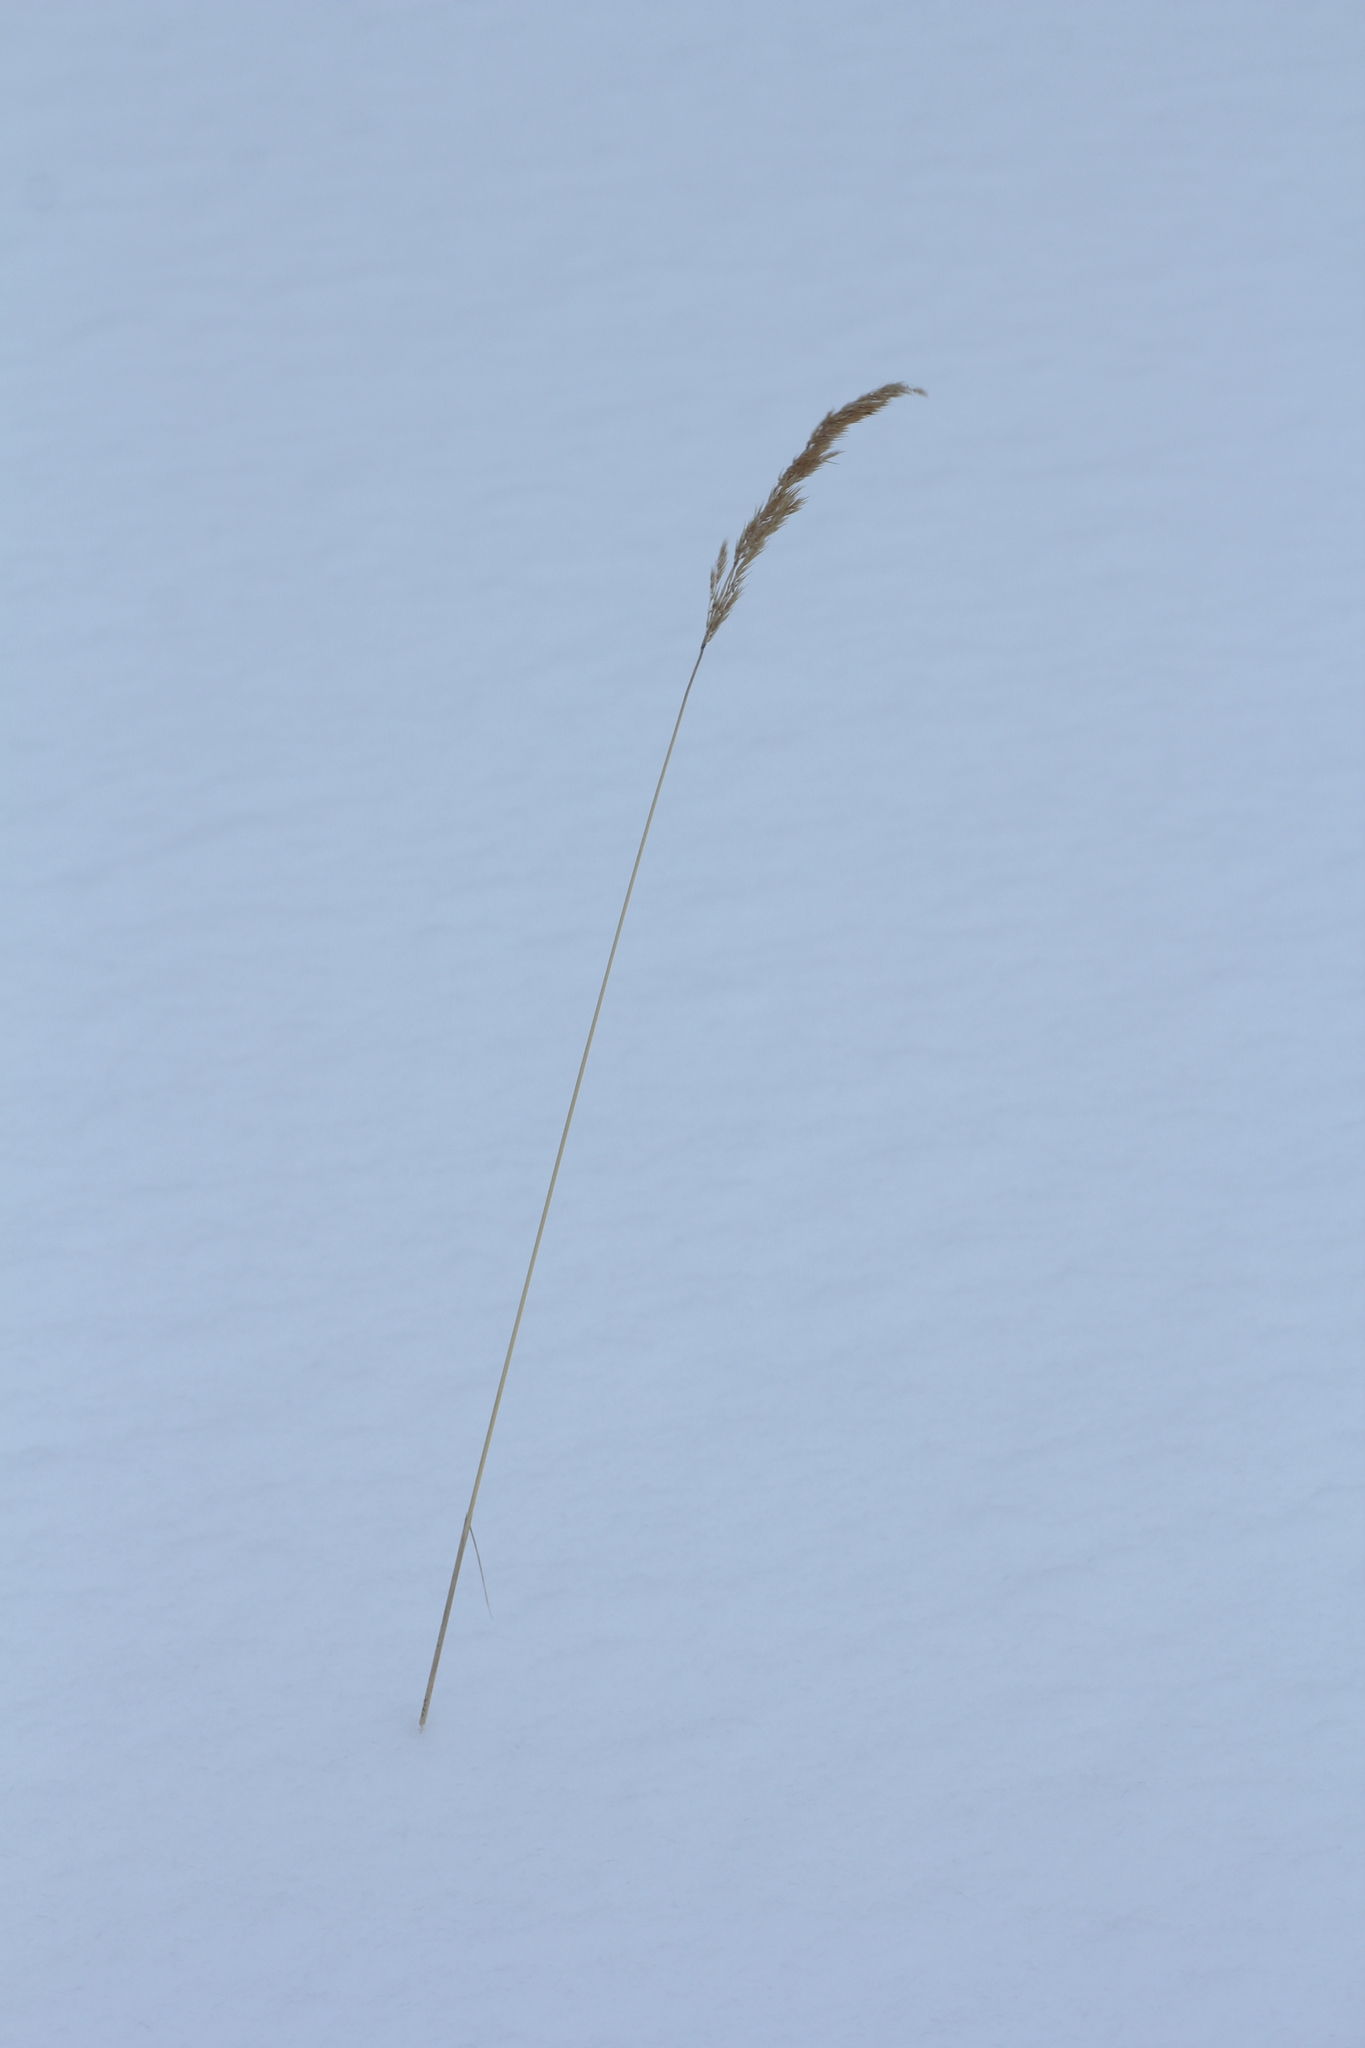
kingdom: Plantae
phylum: Tracheophyta
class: Liliopsida
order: Poales
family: Poaceae
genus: Calamagrostis
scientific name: Calamagrostis epigejos
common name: Wood small-reed
